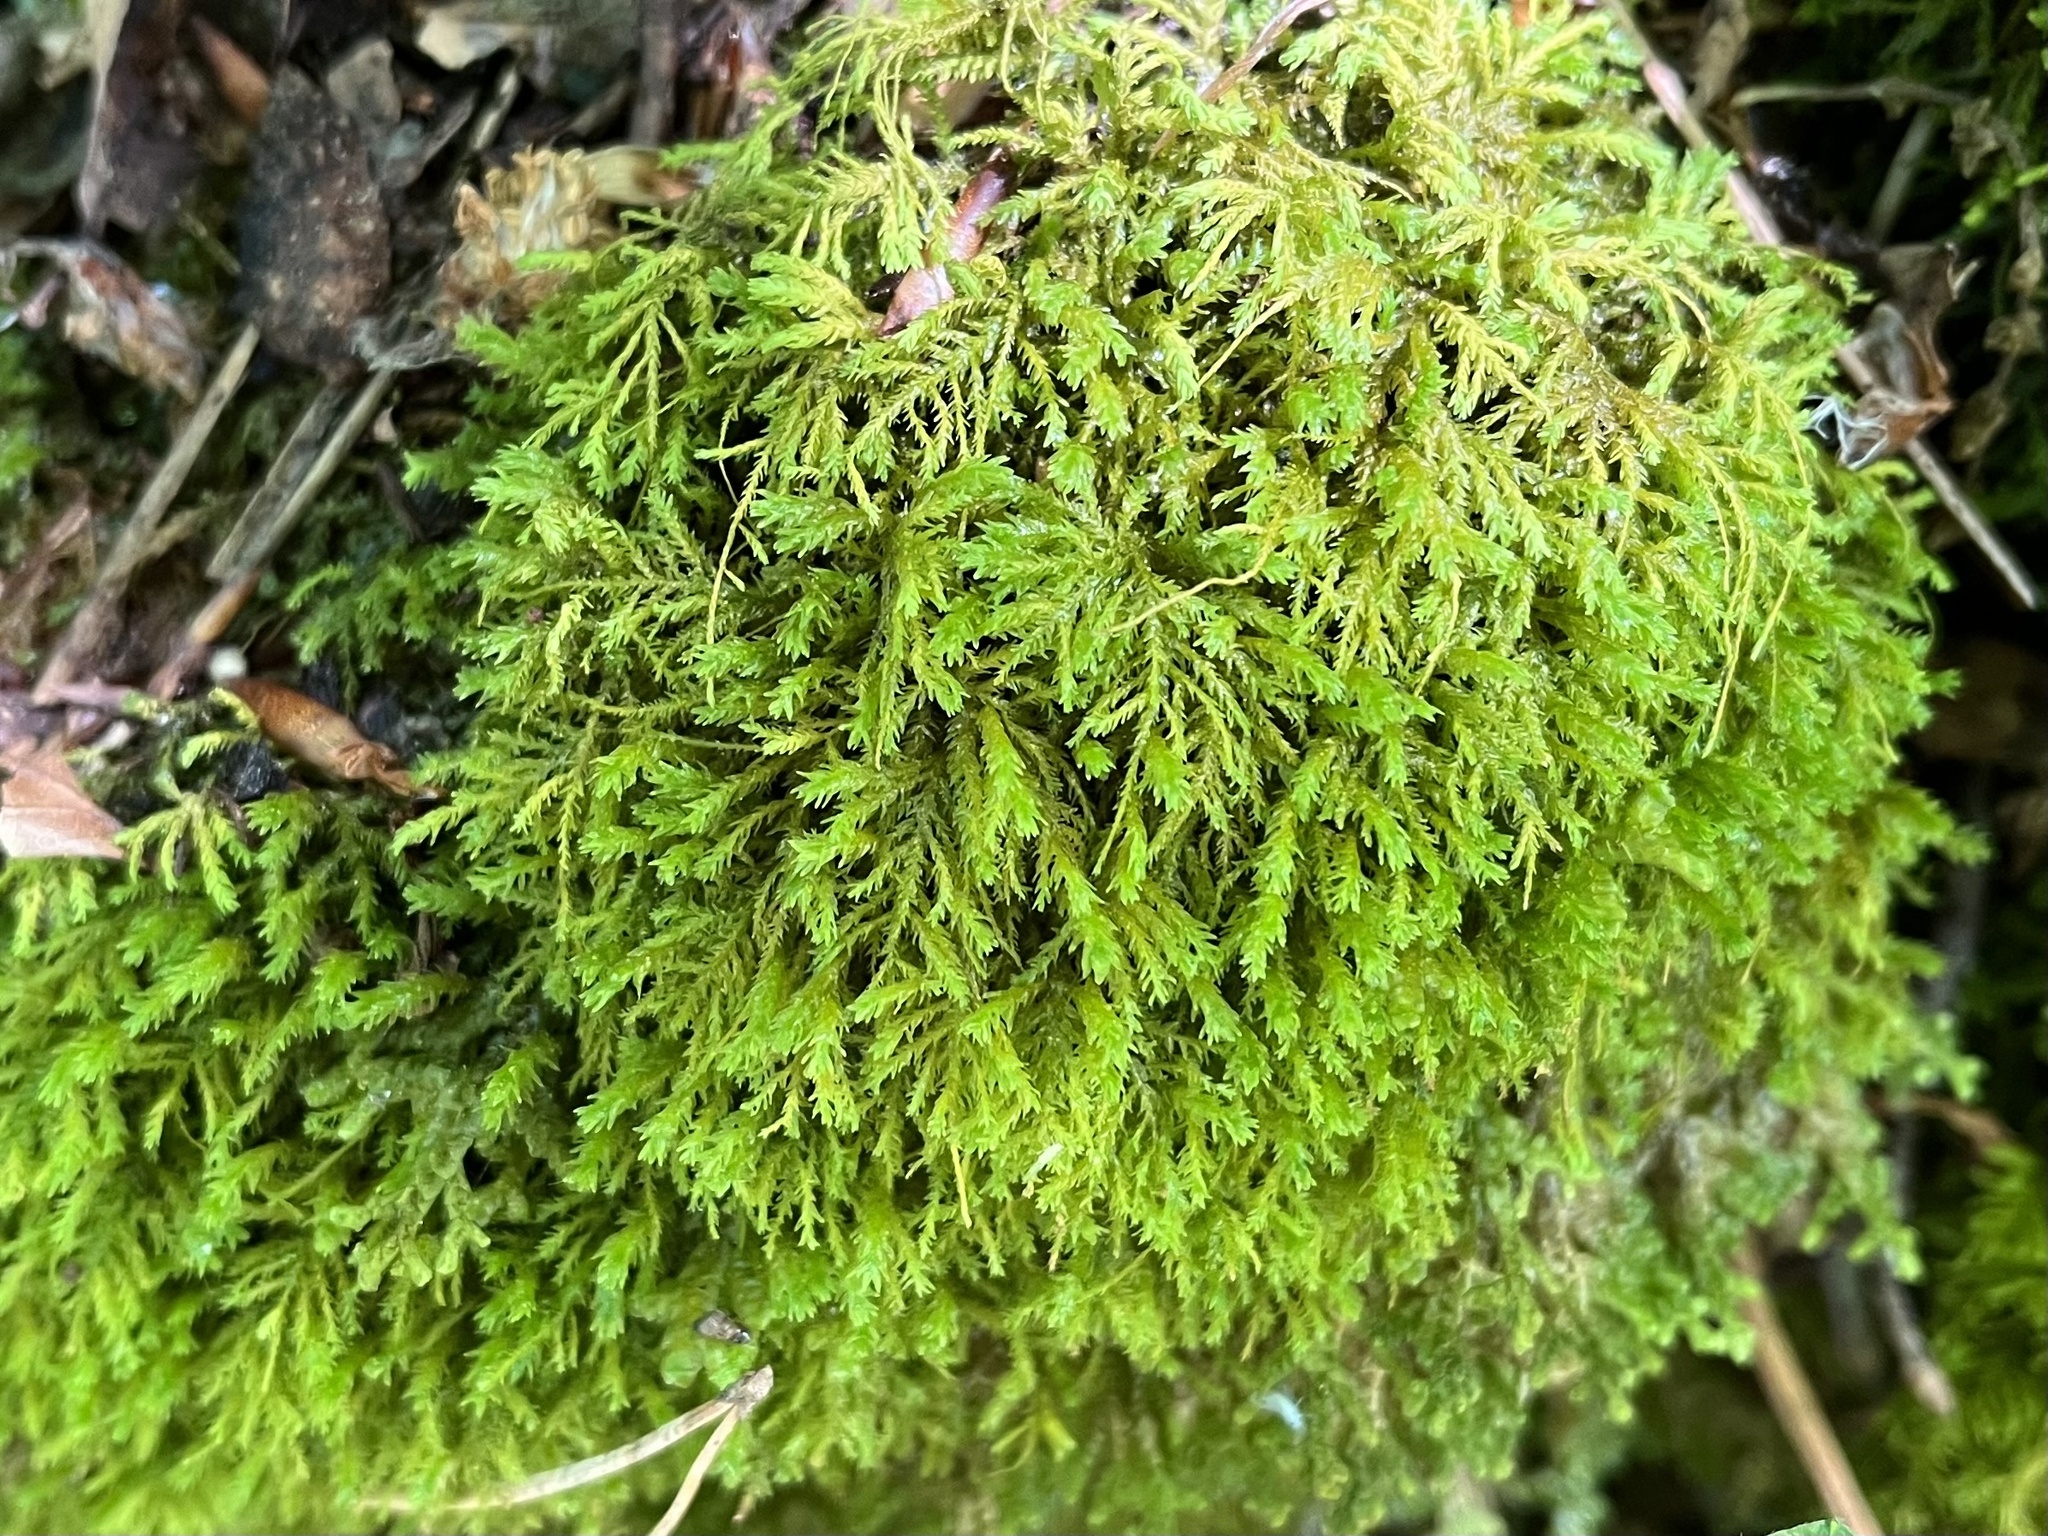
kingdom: Plantae
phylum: Bryophyta
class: Bryopsida
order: Hypnales
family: Neckeraceae
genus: Pseudanomodon
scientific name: Pseudanomodon attenuatus
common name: Tree-skirt moss
